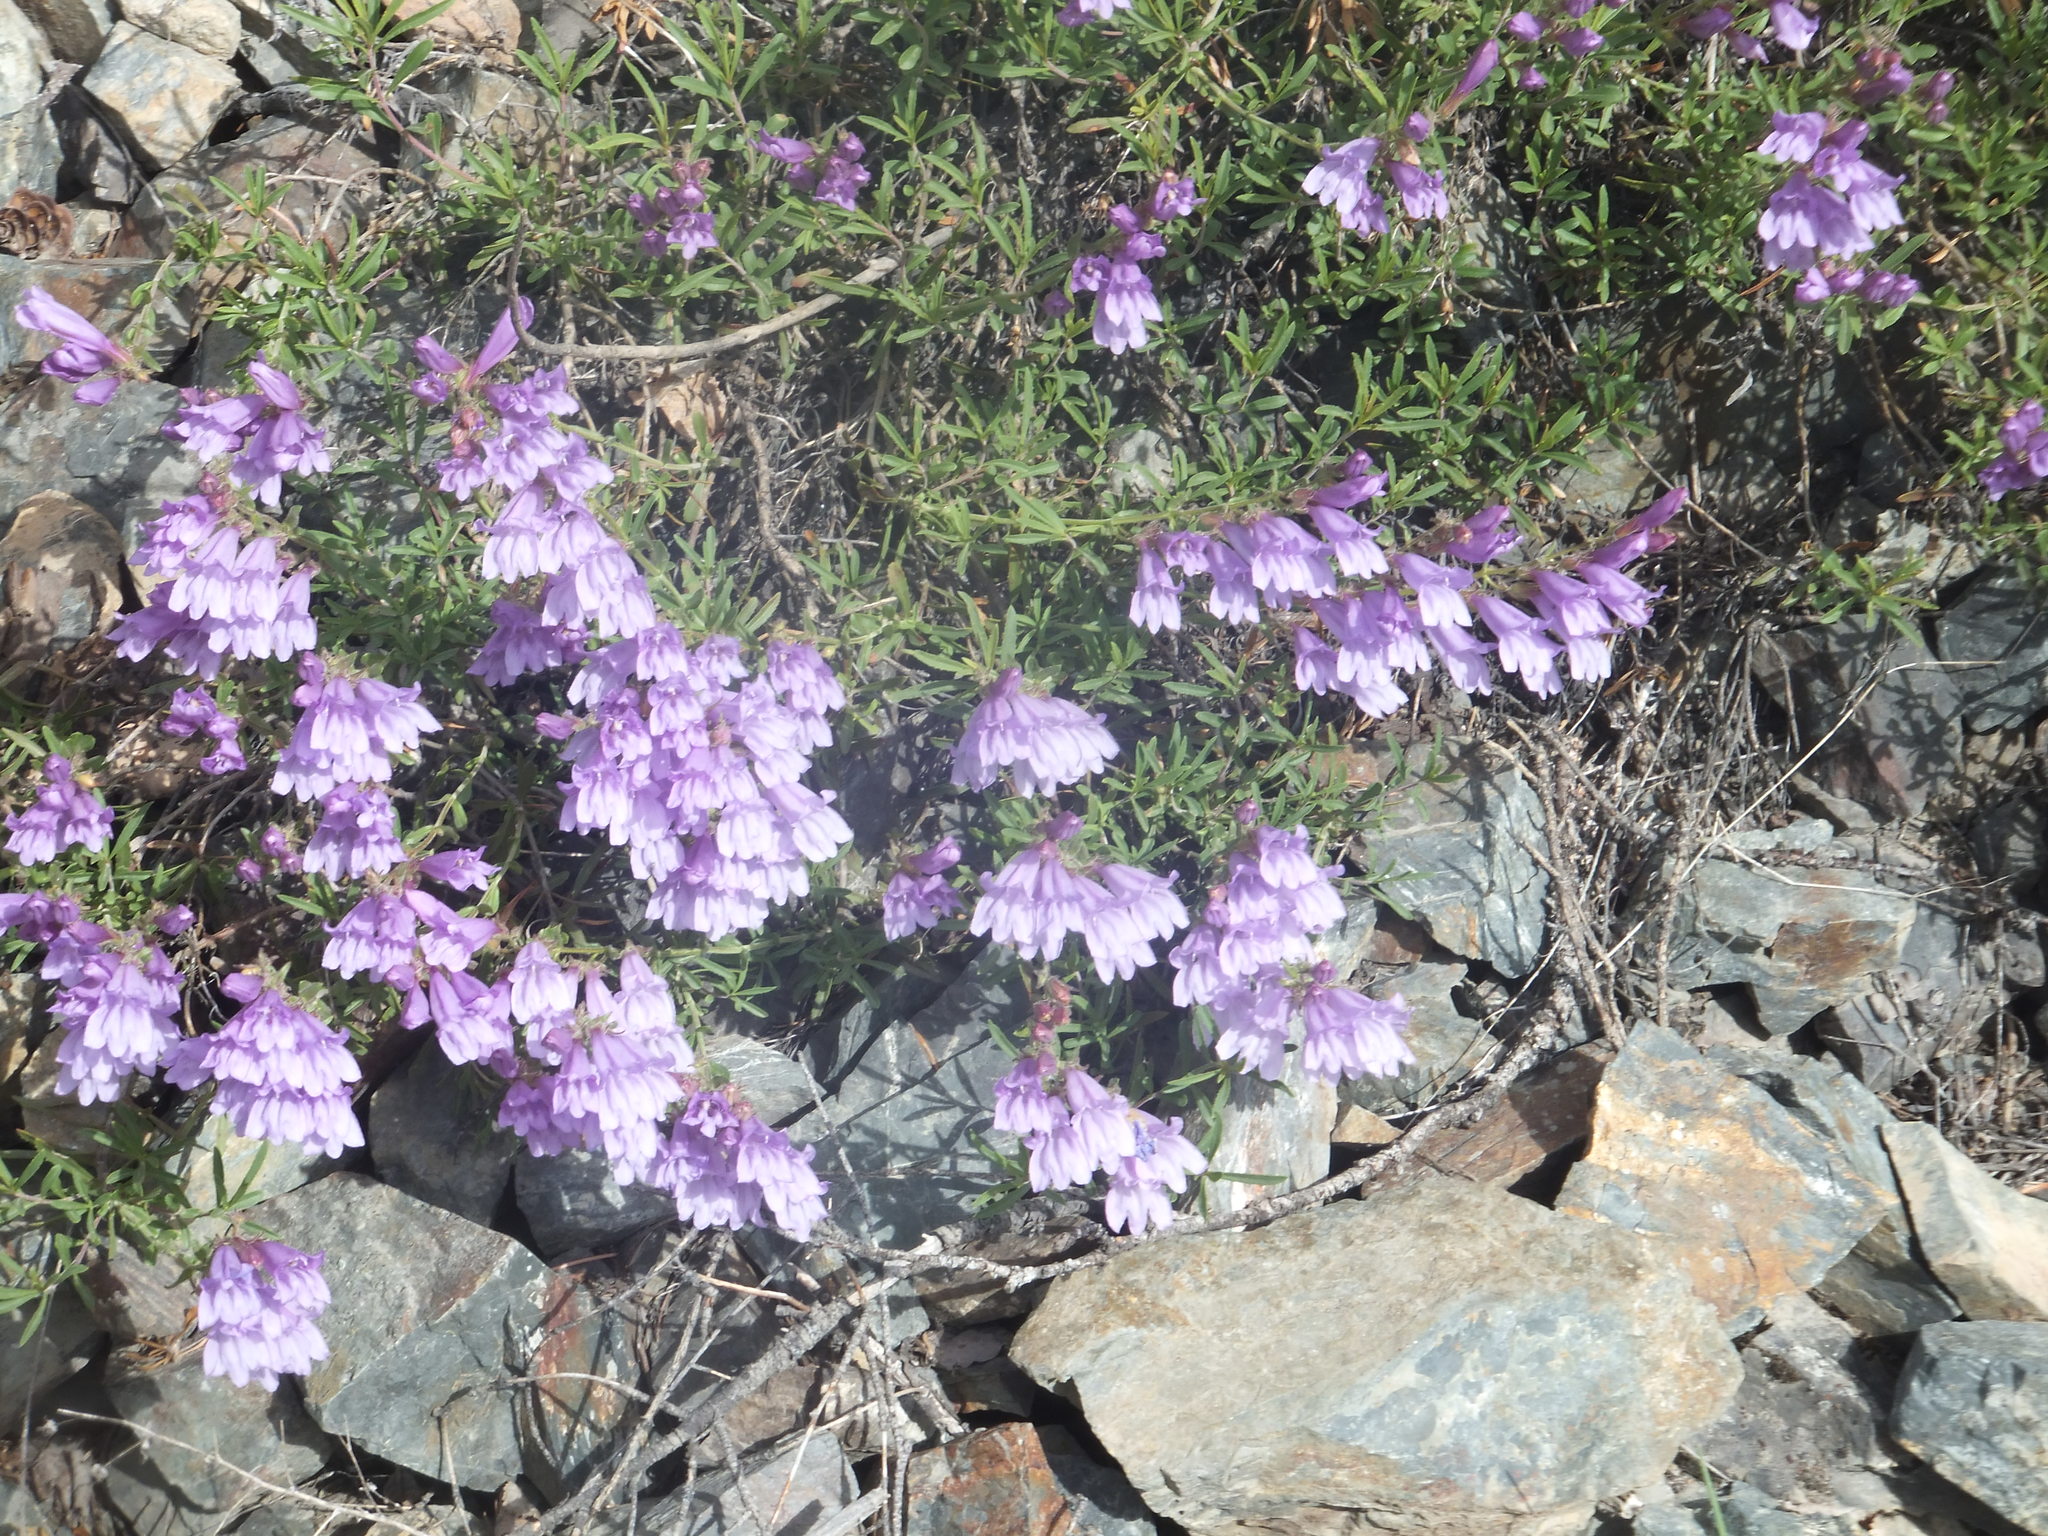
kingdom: Plantae
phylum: Tracheophyta
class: Magnoliopsida
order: Lamiales
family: Plantaginaceae
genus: Penstemon
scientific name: Penstemon fruticosus
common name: Bush penstemon
